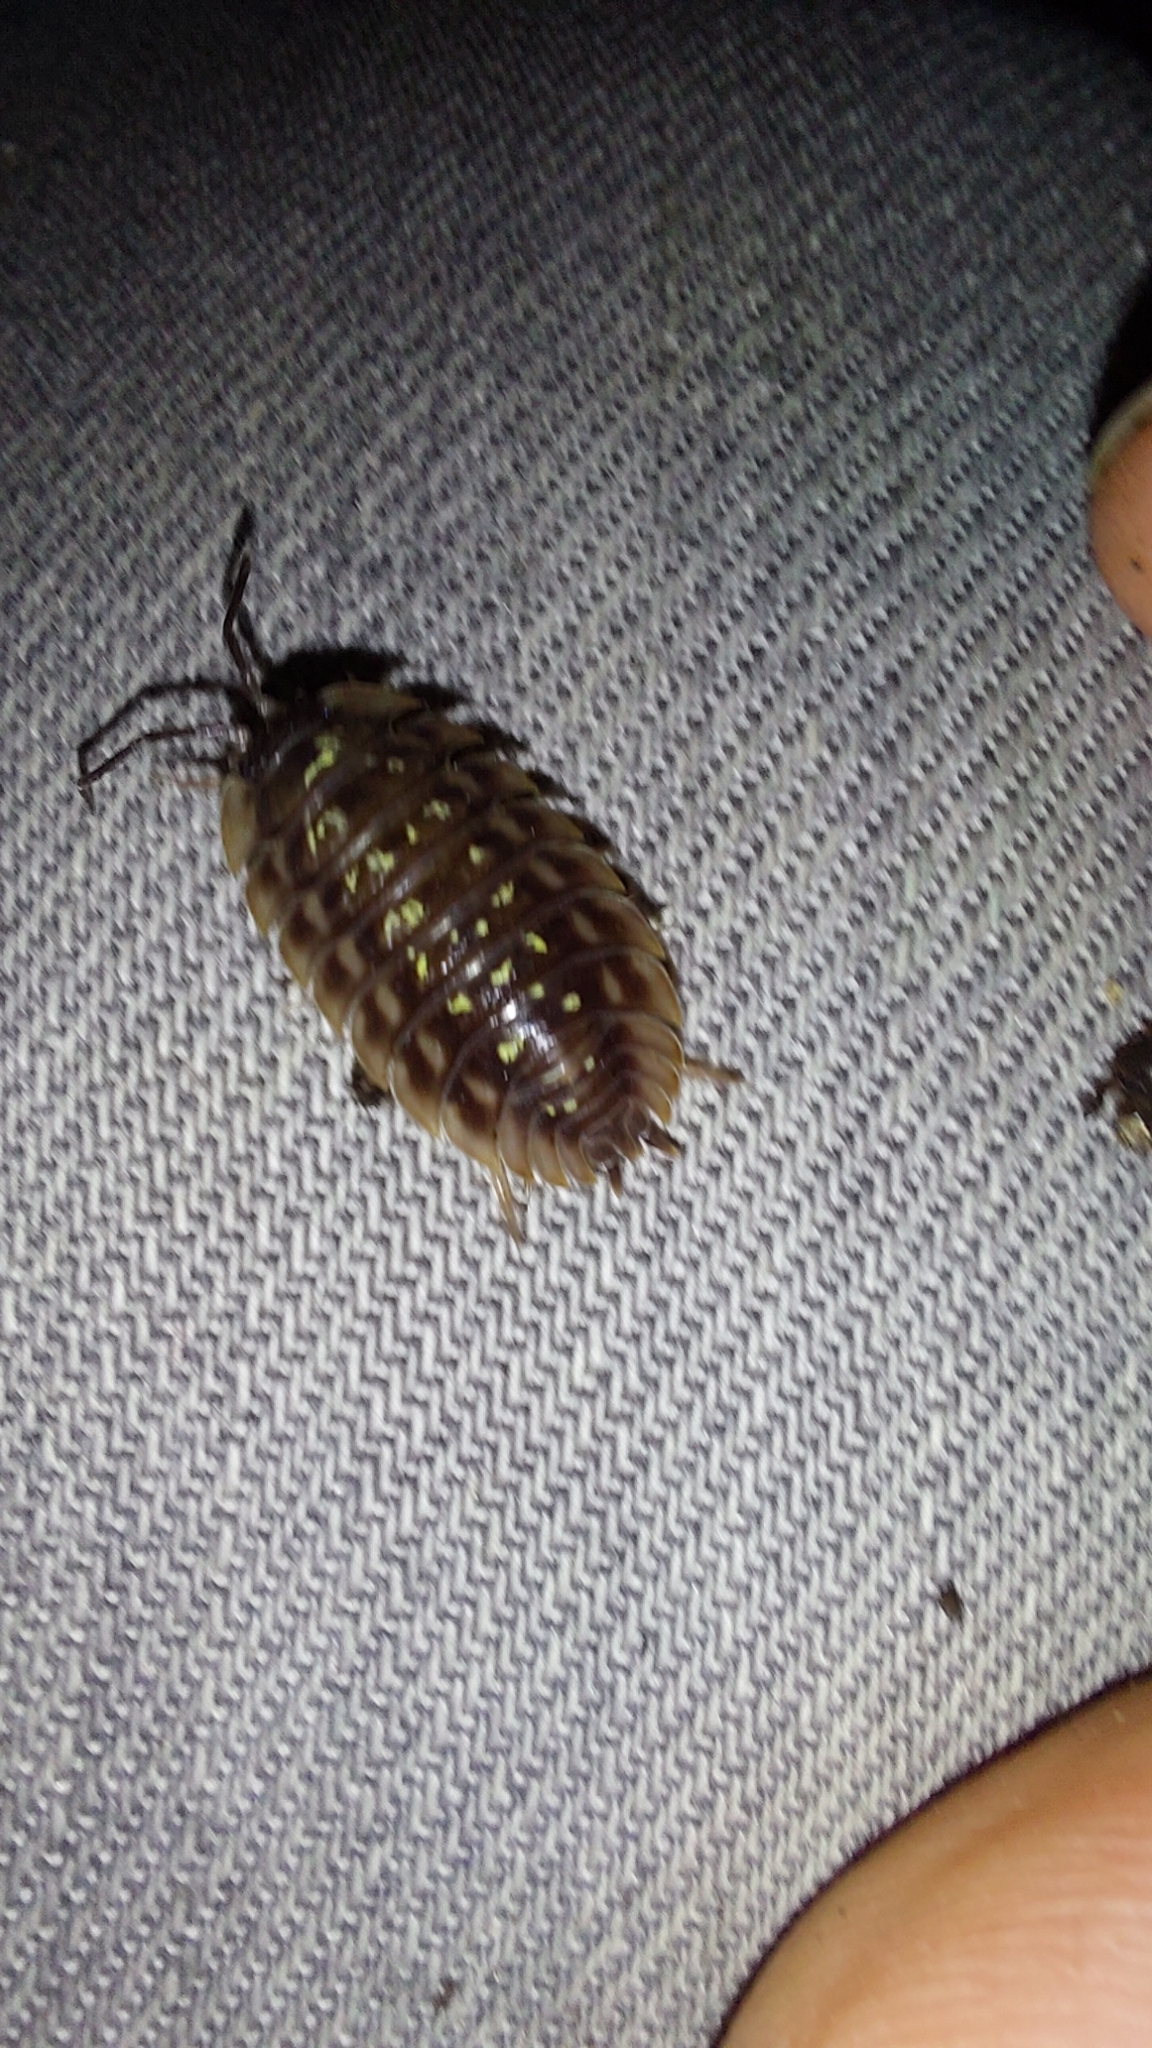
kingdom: Animalia
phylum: Arthropoda
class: Malacostraca
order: Isopoda
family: Oniscidae
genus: Oniscus
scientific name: Oniscus asellus
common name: Common shiny woodlouse
